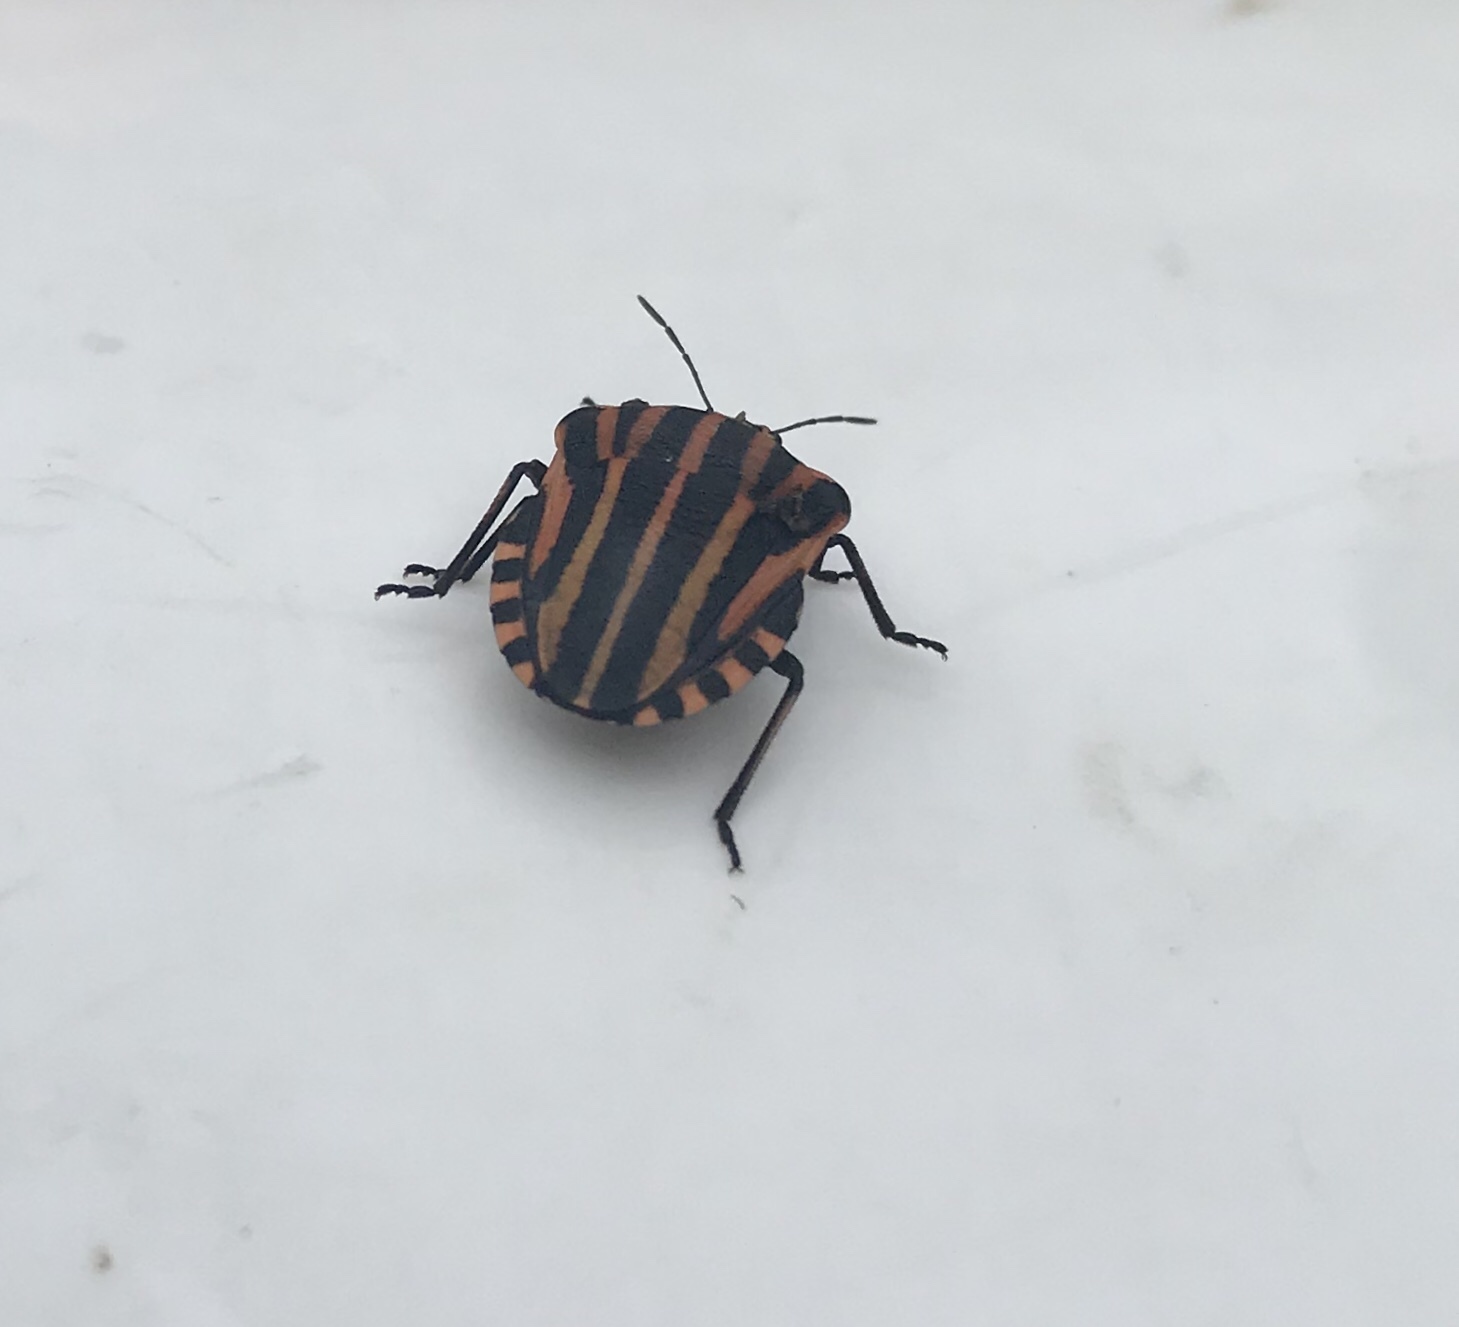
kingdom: Animalia
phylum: Arthropoda
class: Insecta
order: Hemiptera
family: Pentatomidae
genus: Graphosoma
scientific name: Graphosoma italicum
